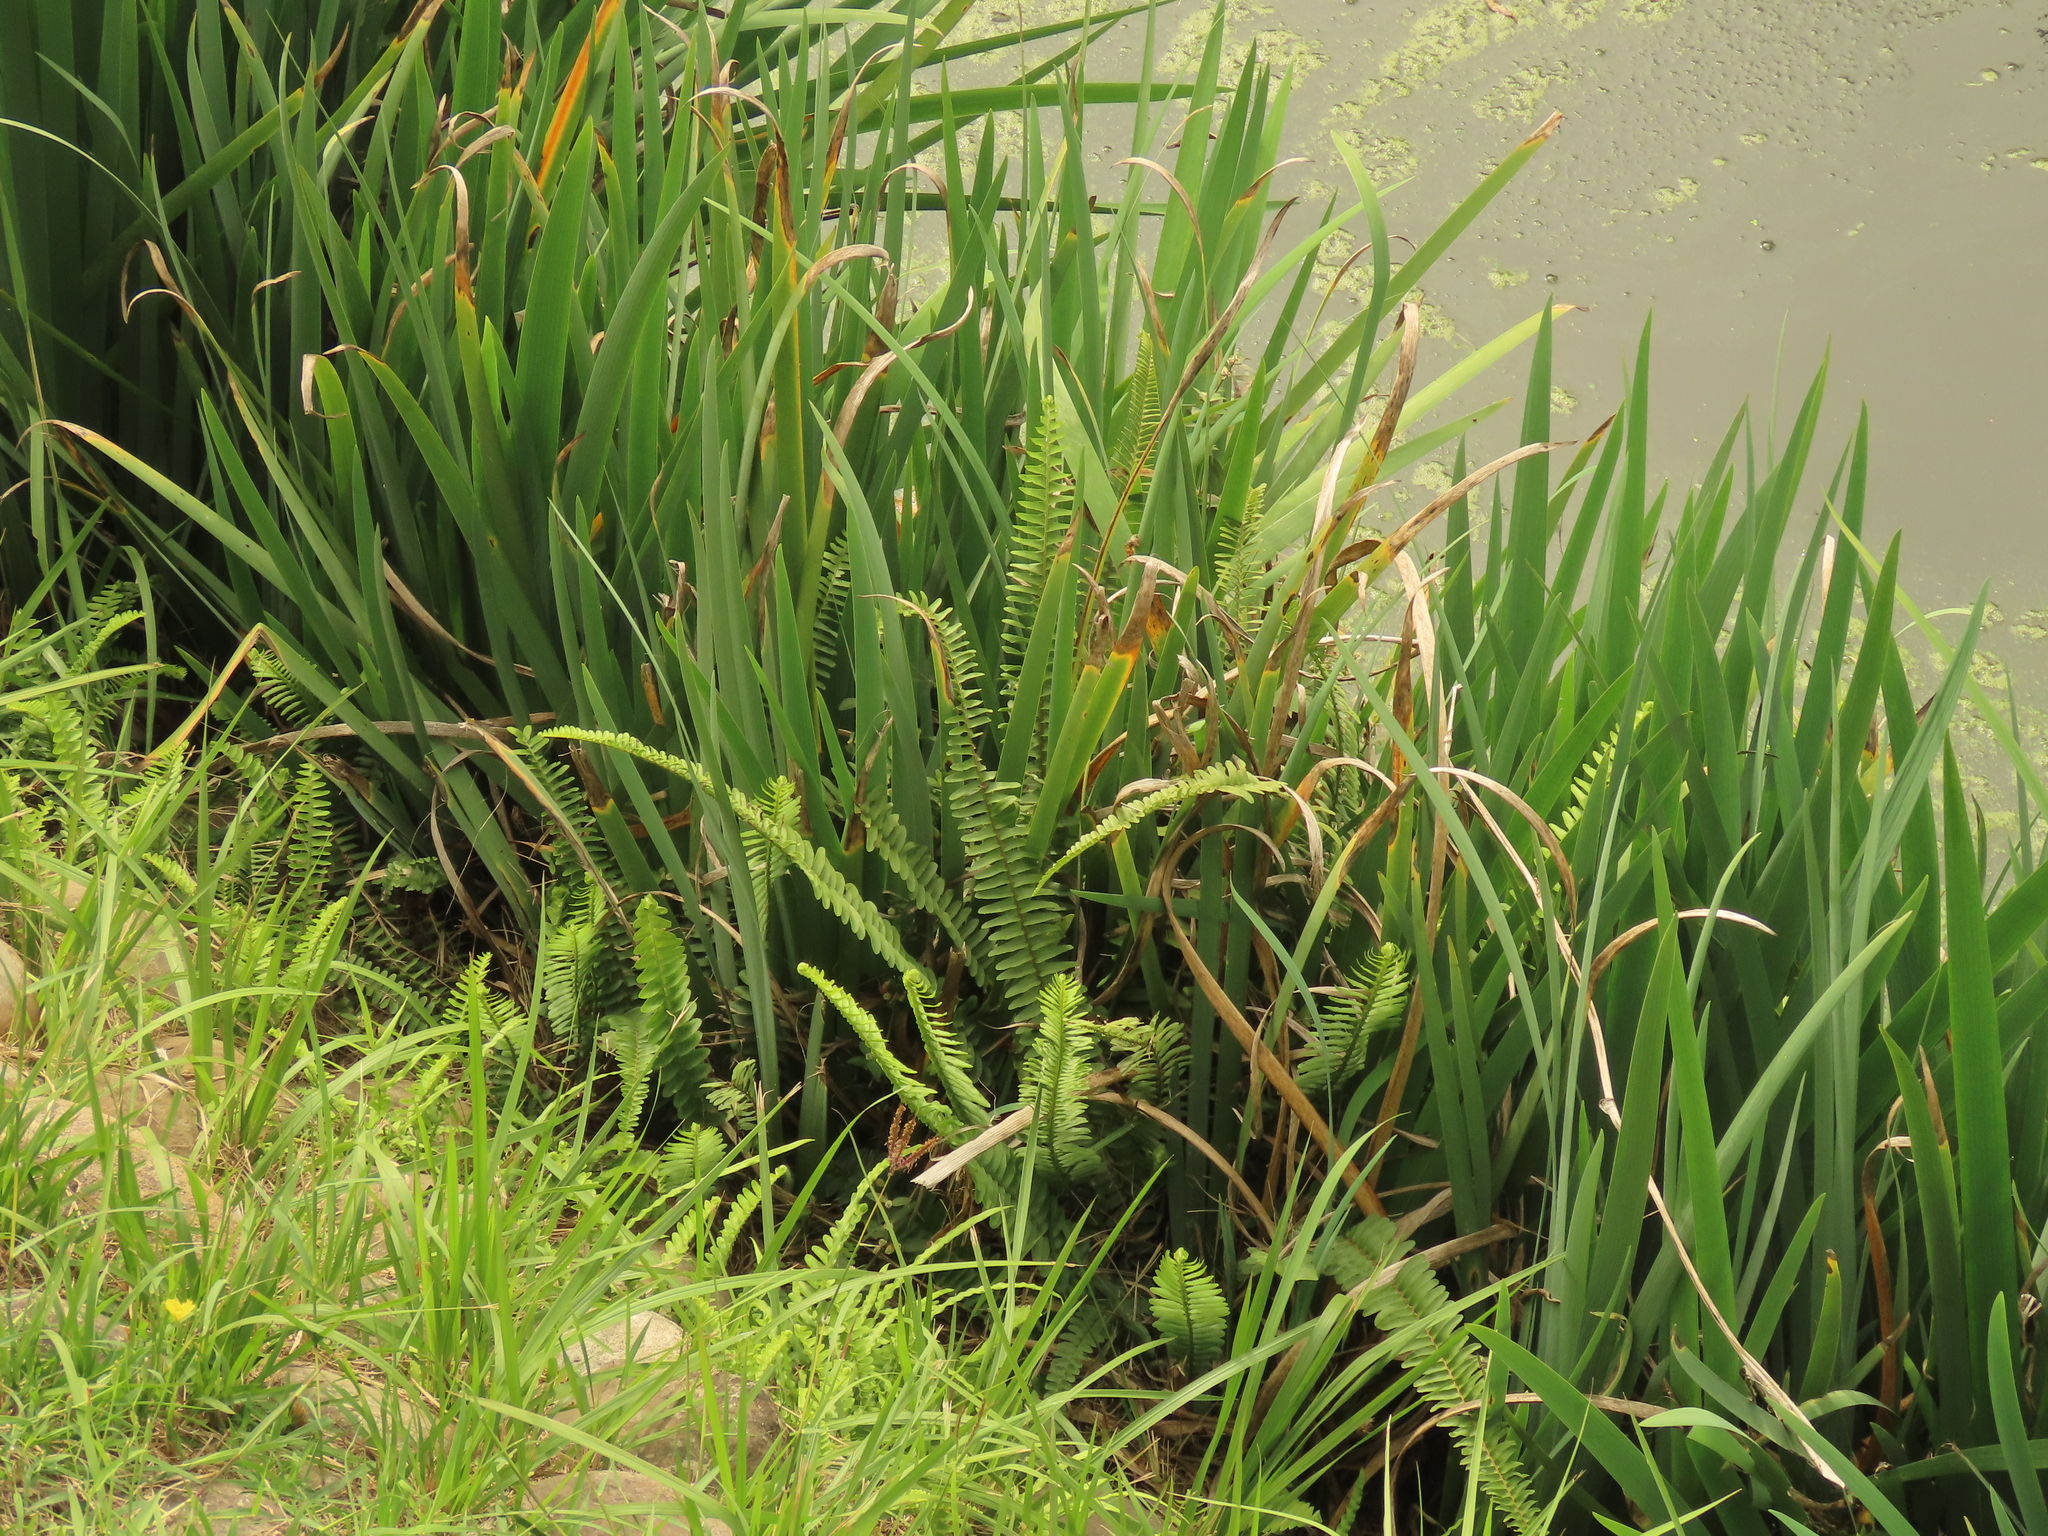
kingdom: Plantae
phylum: Tracheophyta
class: Polypodiopsida
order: Polypodiales
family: Nephrolepidaceae
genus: Nephrolepis
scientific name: Nephrolepis cordifolia
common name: Narrow swordfern
